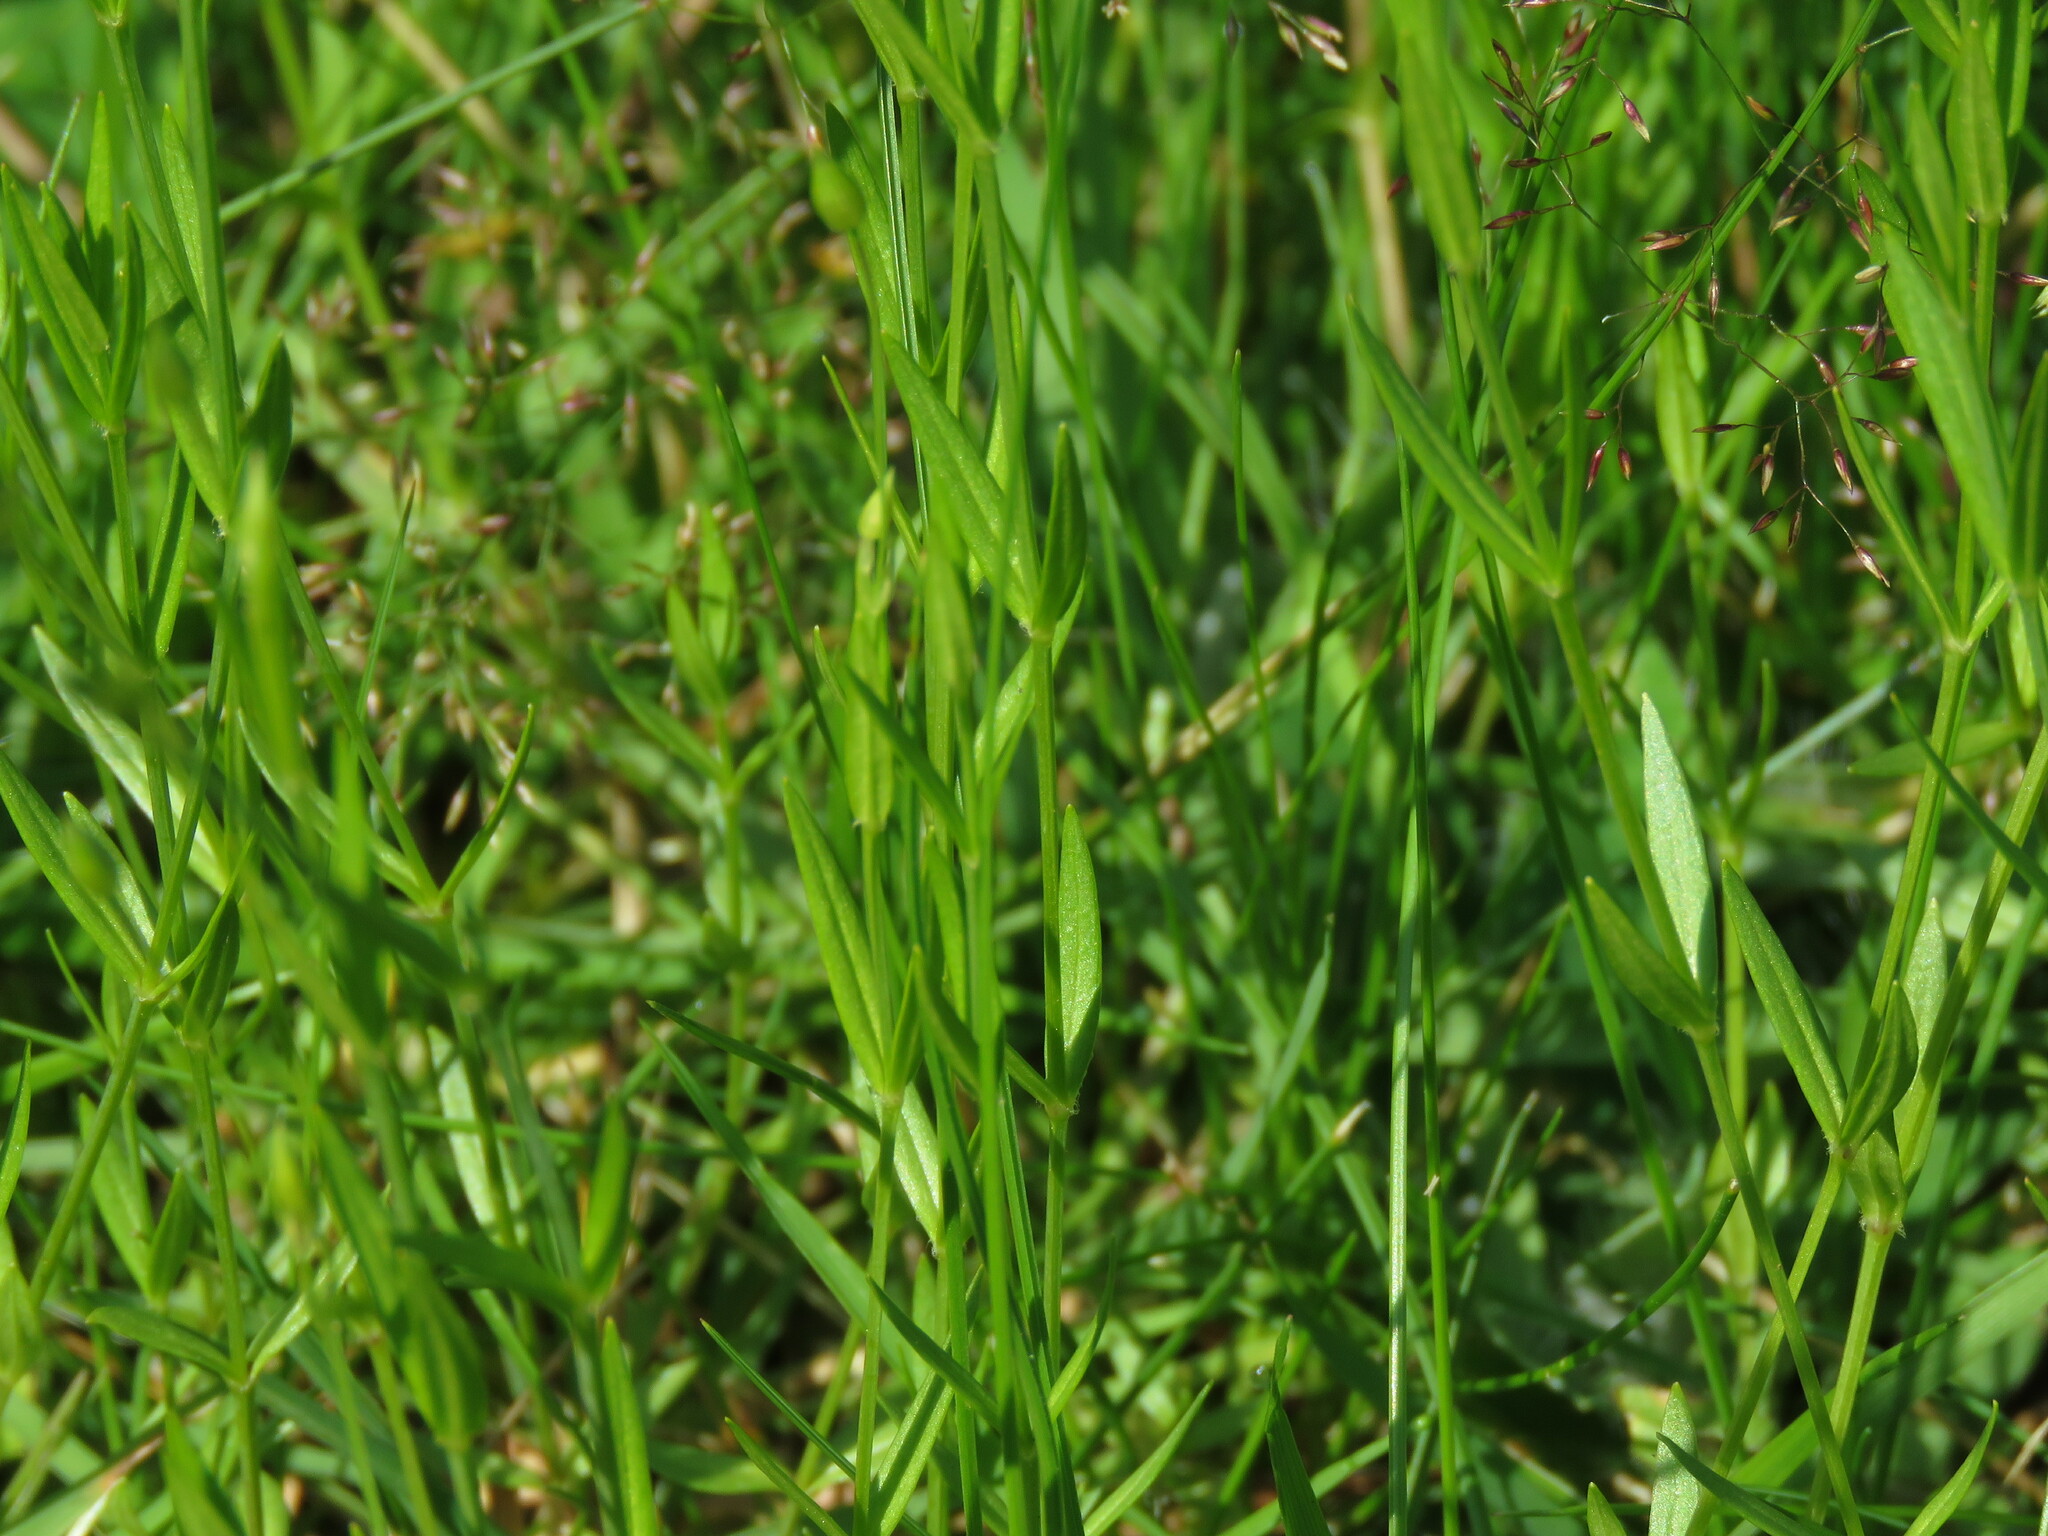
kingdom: Plantae
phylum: Tracheophyta
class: Magnoliopsida
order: Caryophyllales
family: Caryophyllaceae
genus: Stellaria
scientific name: Stellaria graminea
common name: Grass-like starwort
